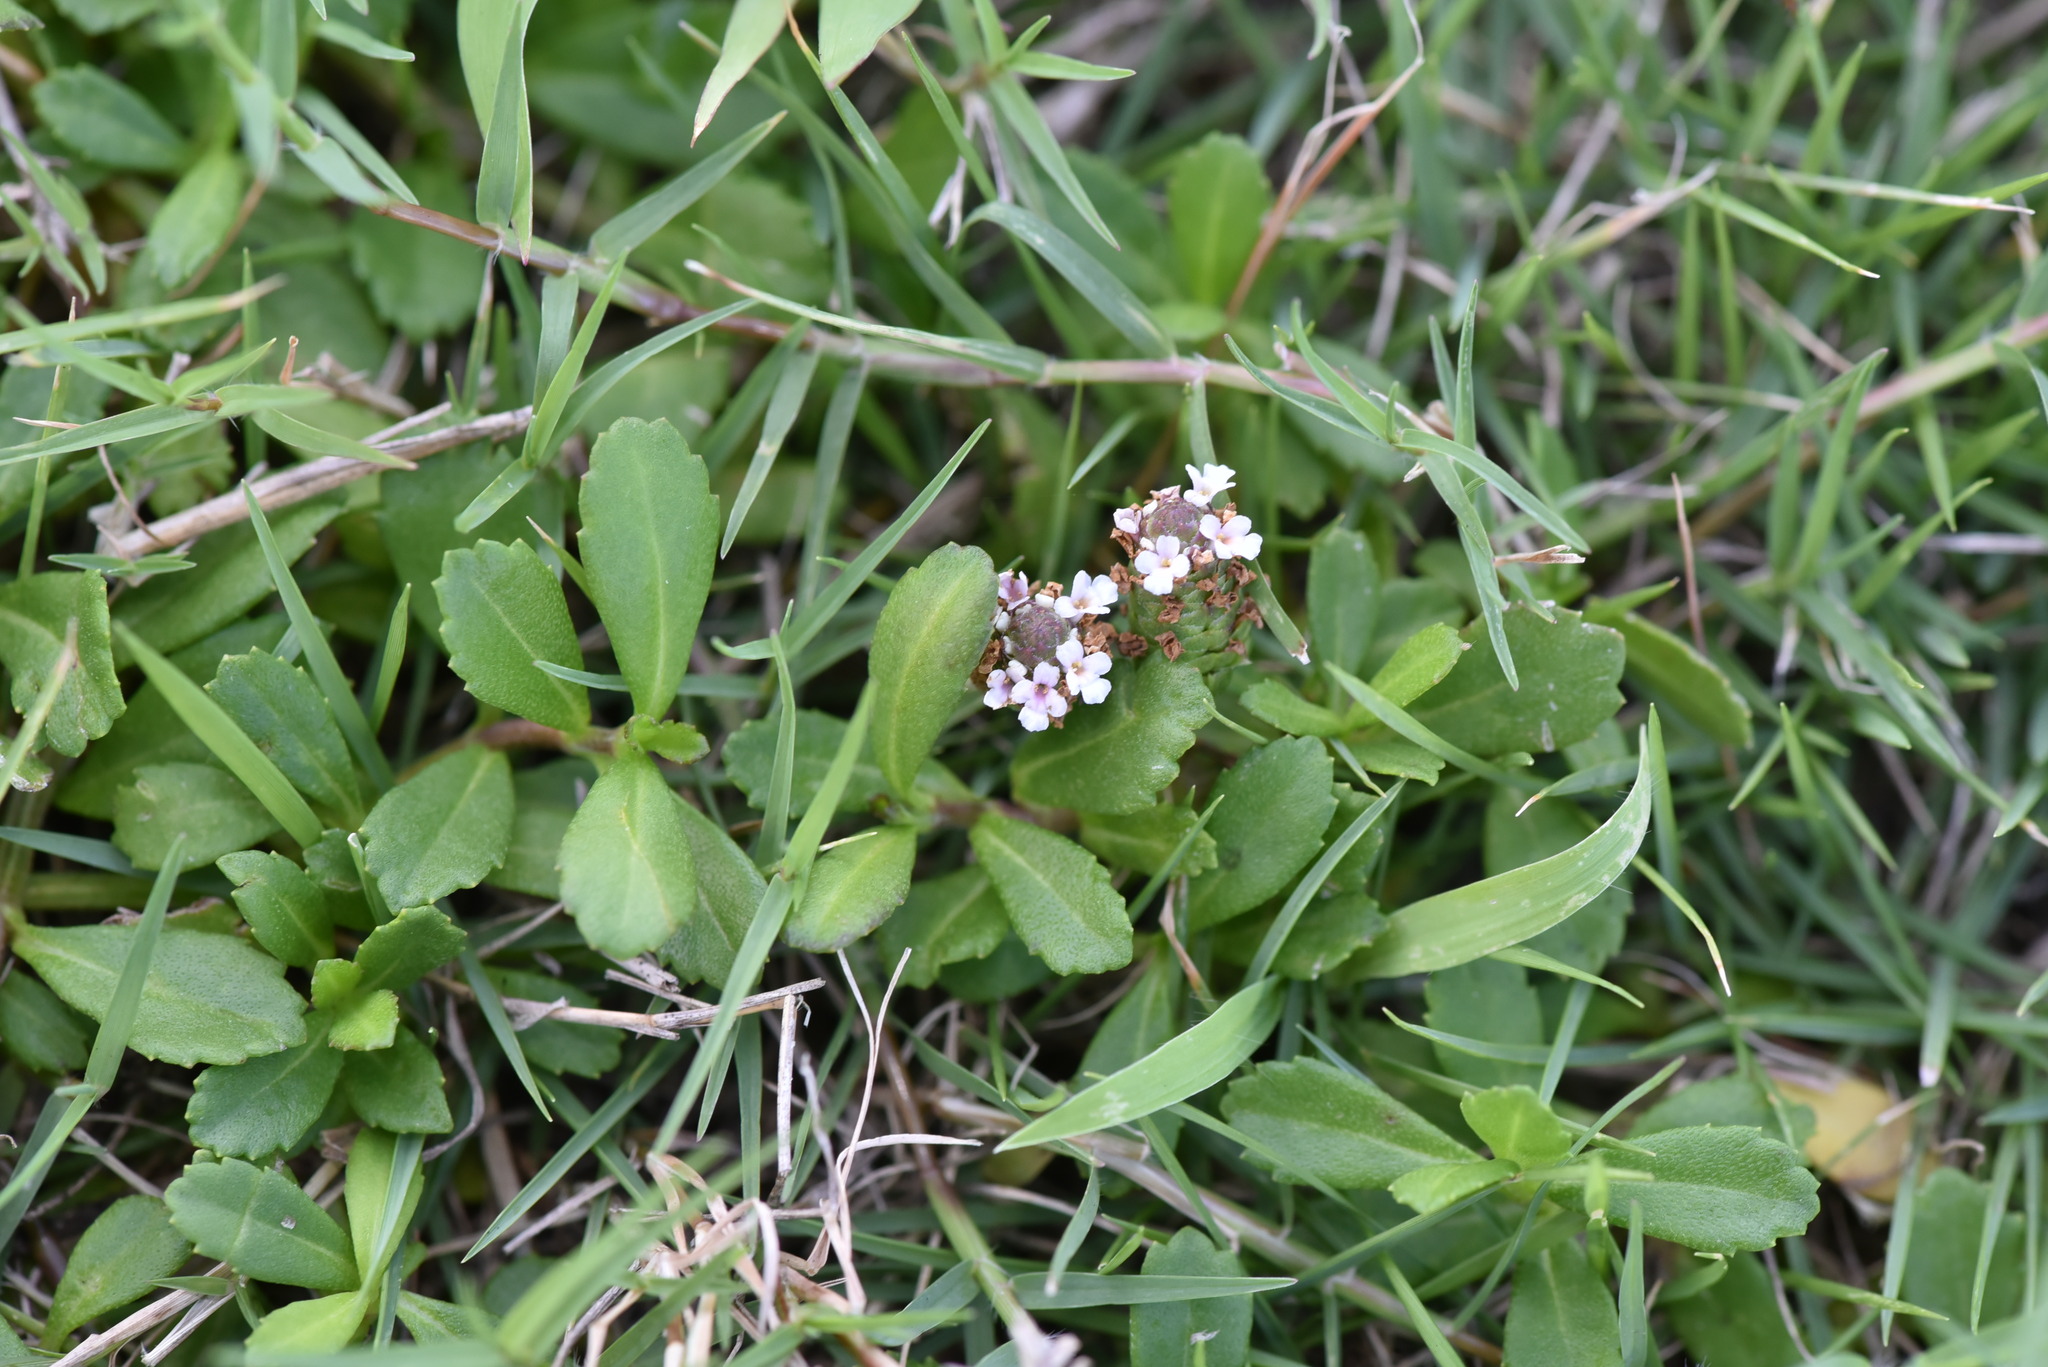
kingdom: Plantae
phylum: Tracheophyta
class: Magnoliopsida
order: Lamiales
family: Verbenaceae
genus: Phyla
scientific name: Phyla nodiflora
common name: Frogfruit
